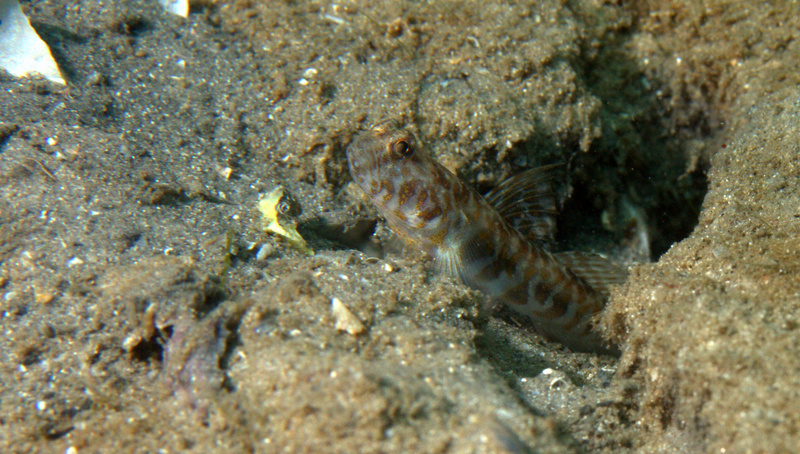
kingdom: Animalia
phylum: Chordata
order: Perciformes
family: Gobiidae
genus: Nes
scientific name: Nes longus
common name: Orangespotted goby
